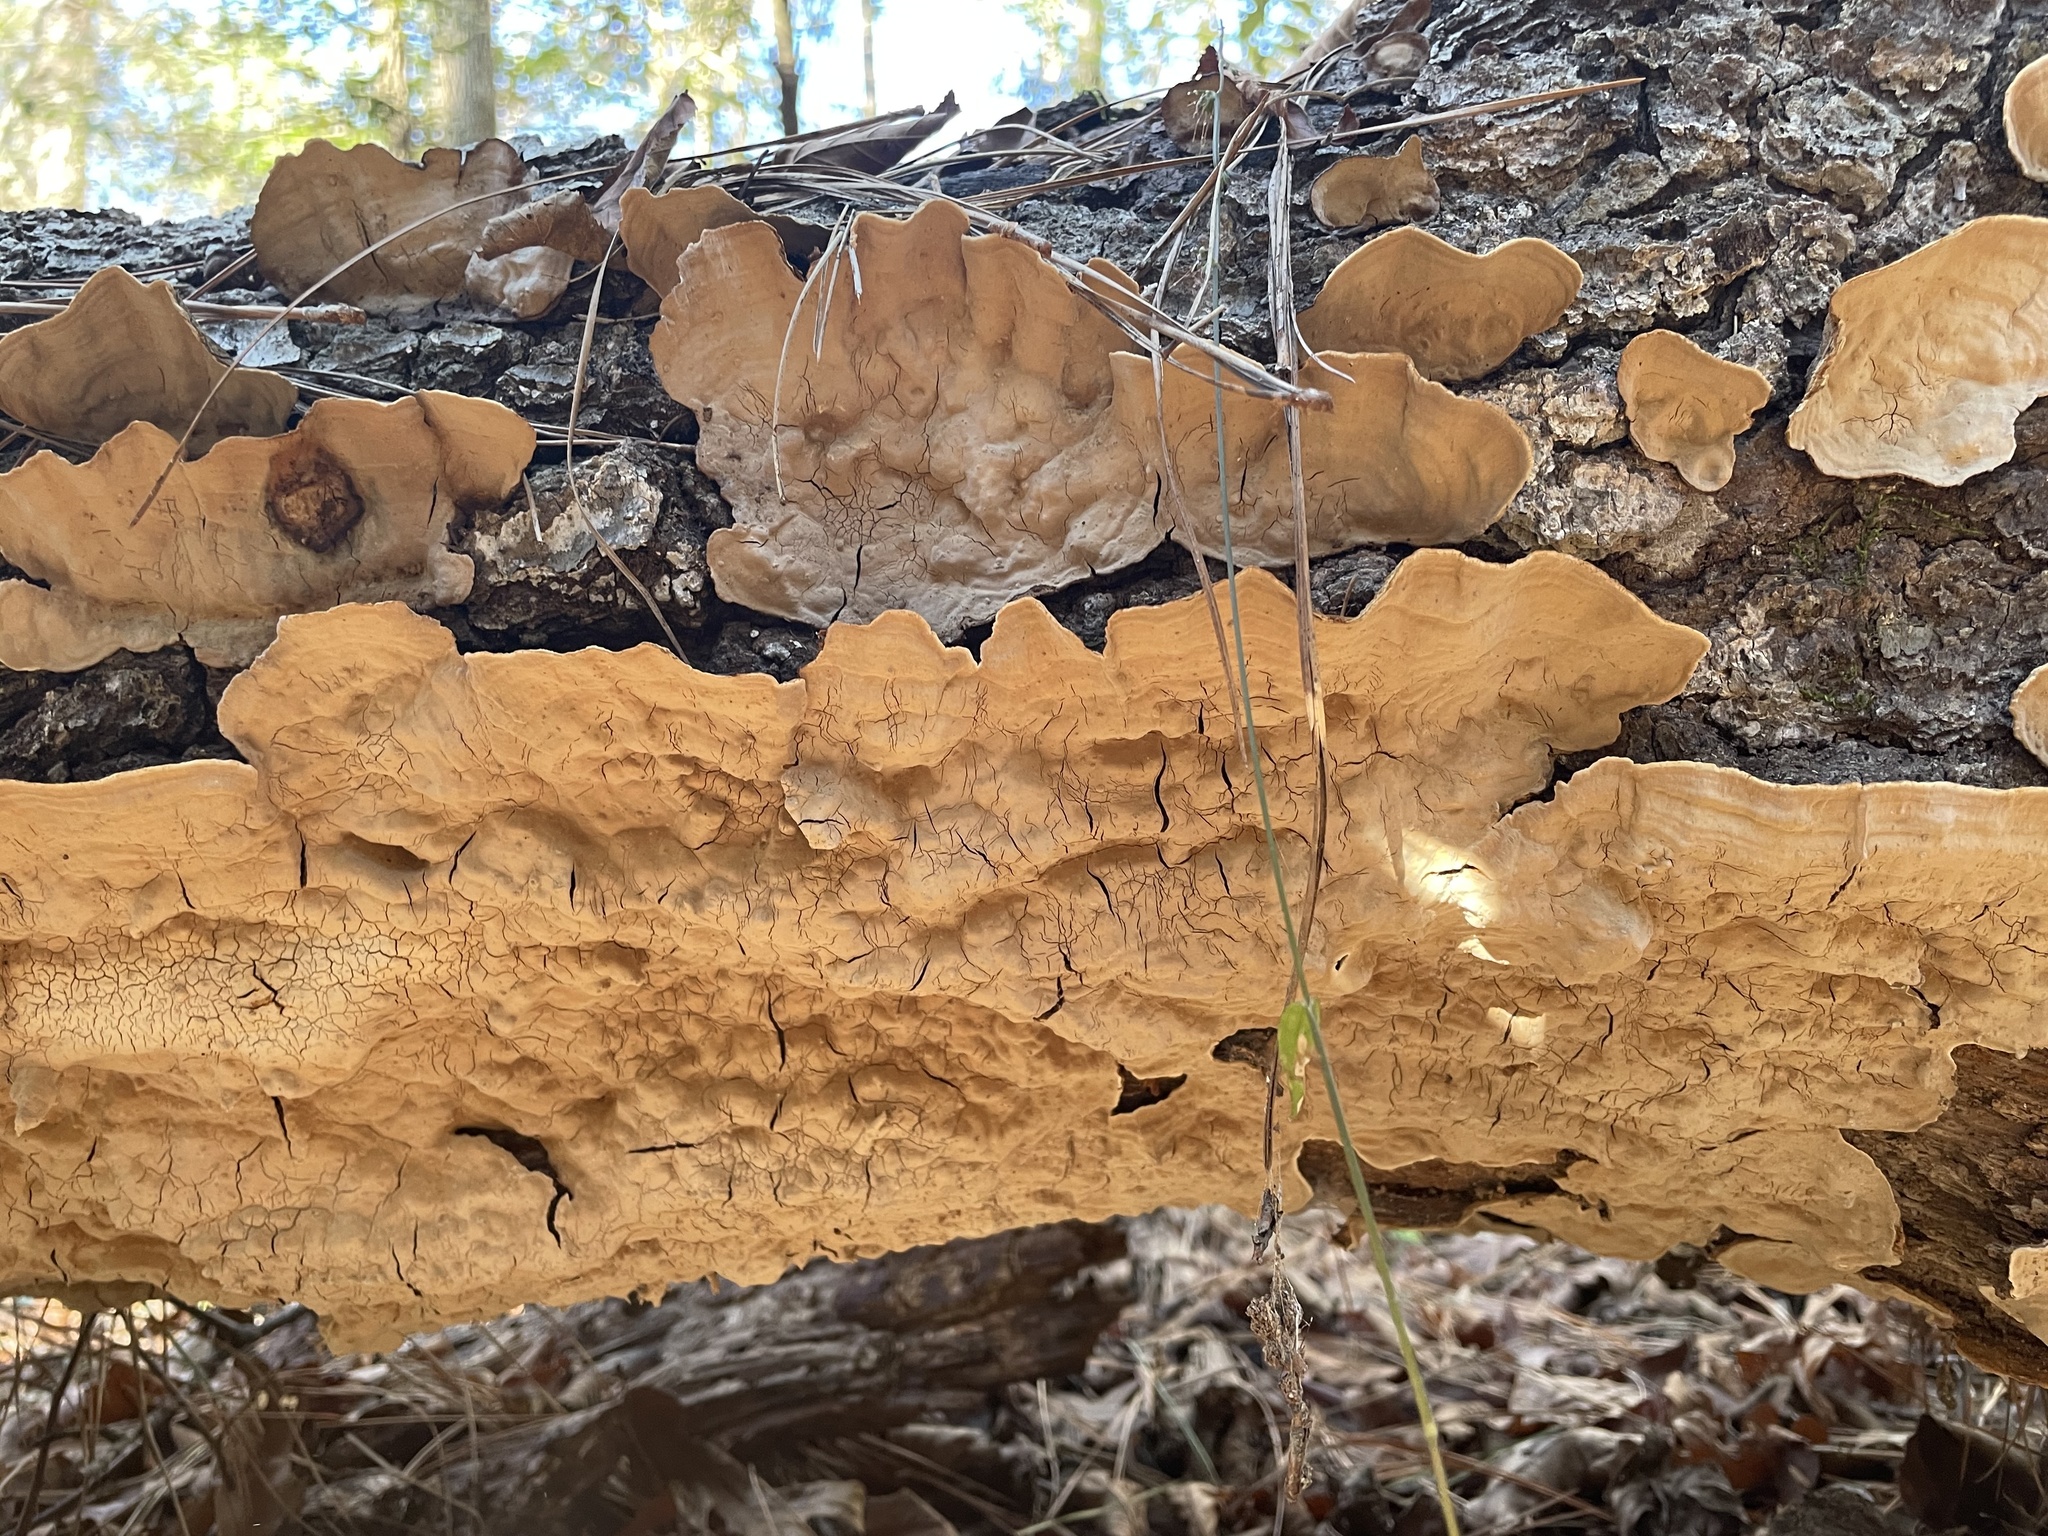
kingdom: Fungi
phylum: Basidiomycota
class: Agaricomycetes
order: Russulales
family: Stereaceae
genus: Xylobolus
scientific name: Xylobolus subpileatus
